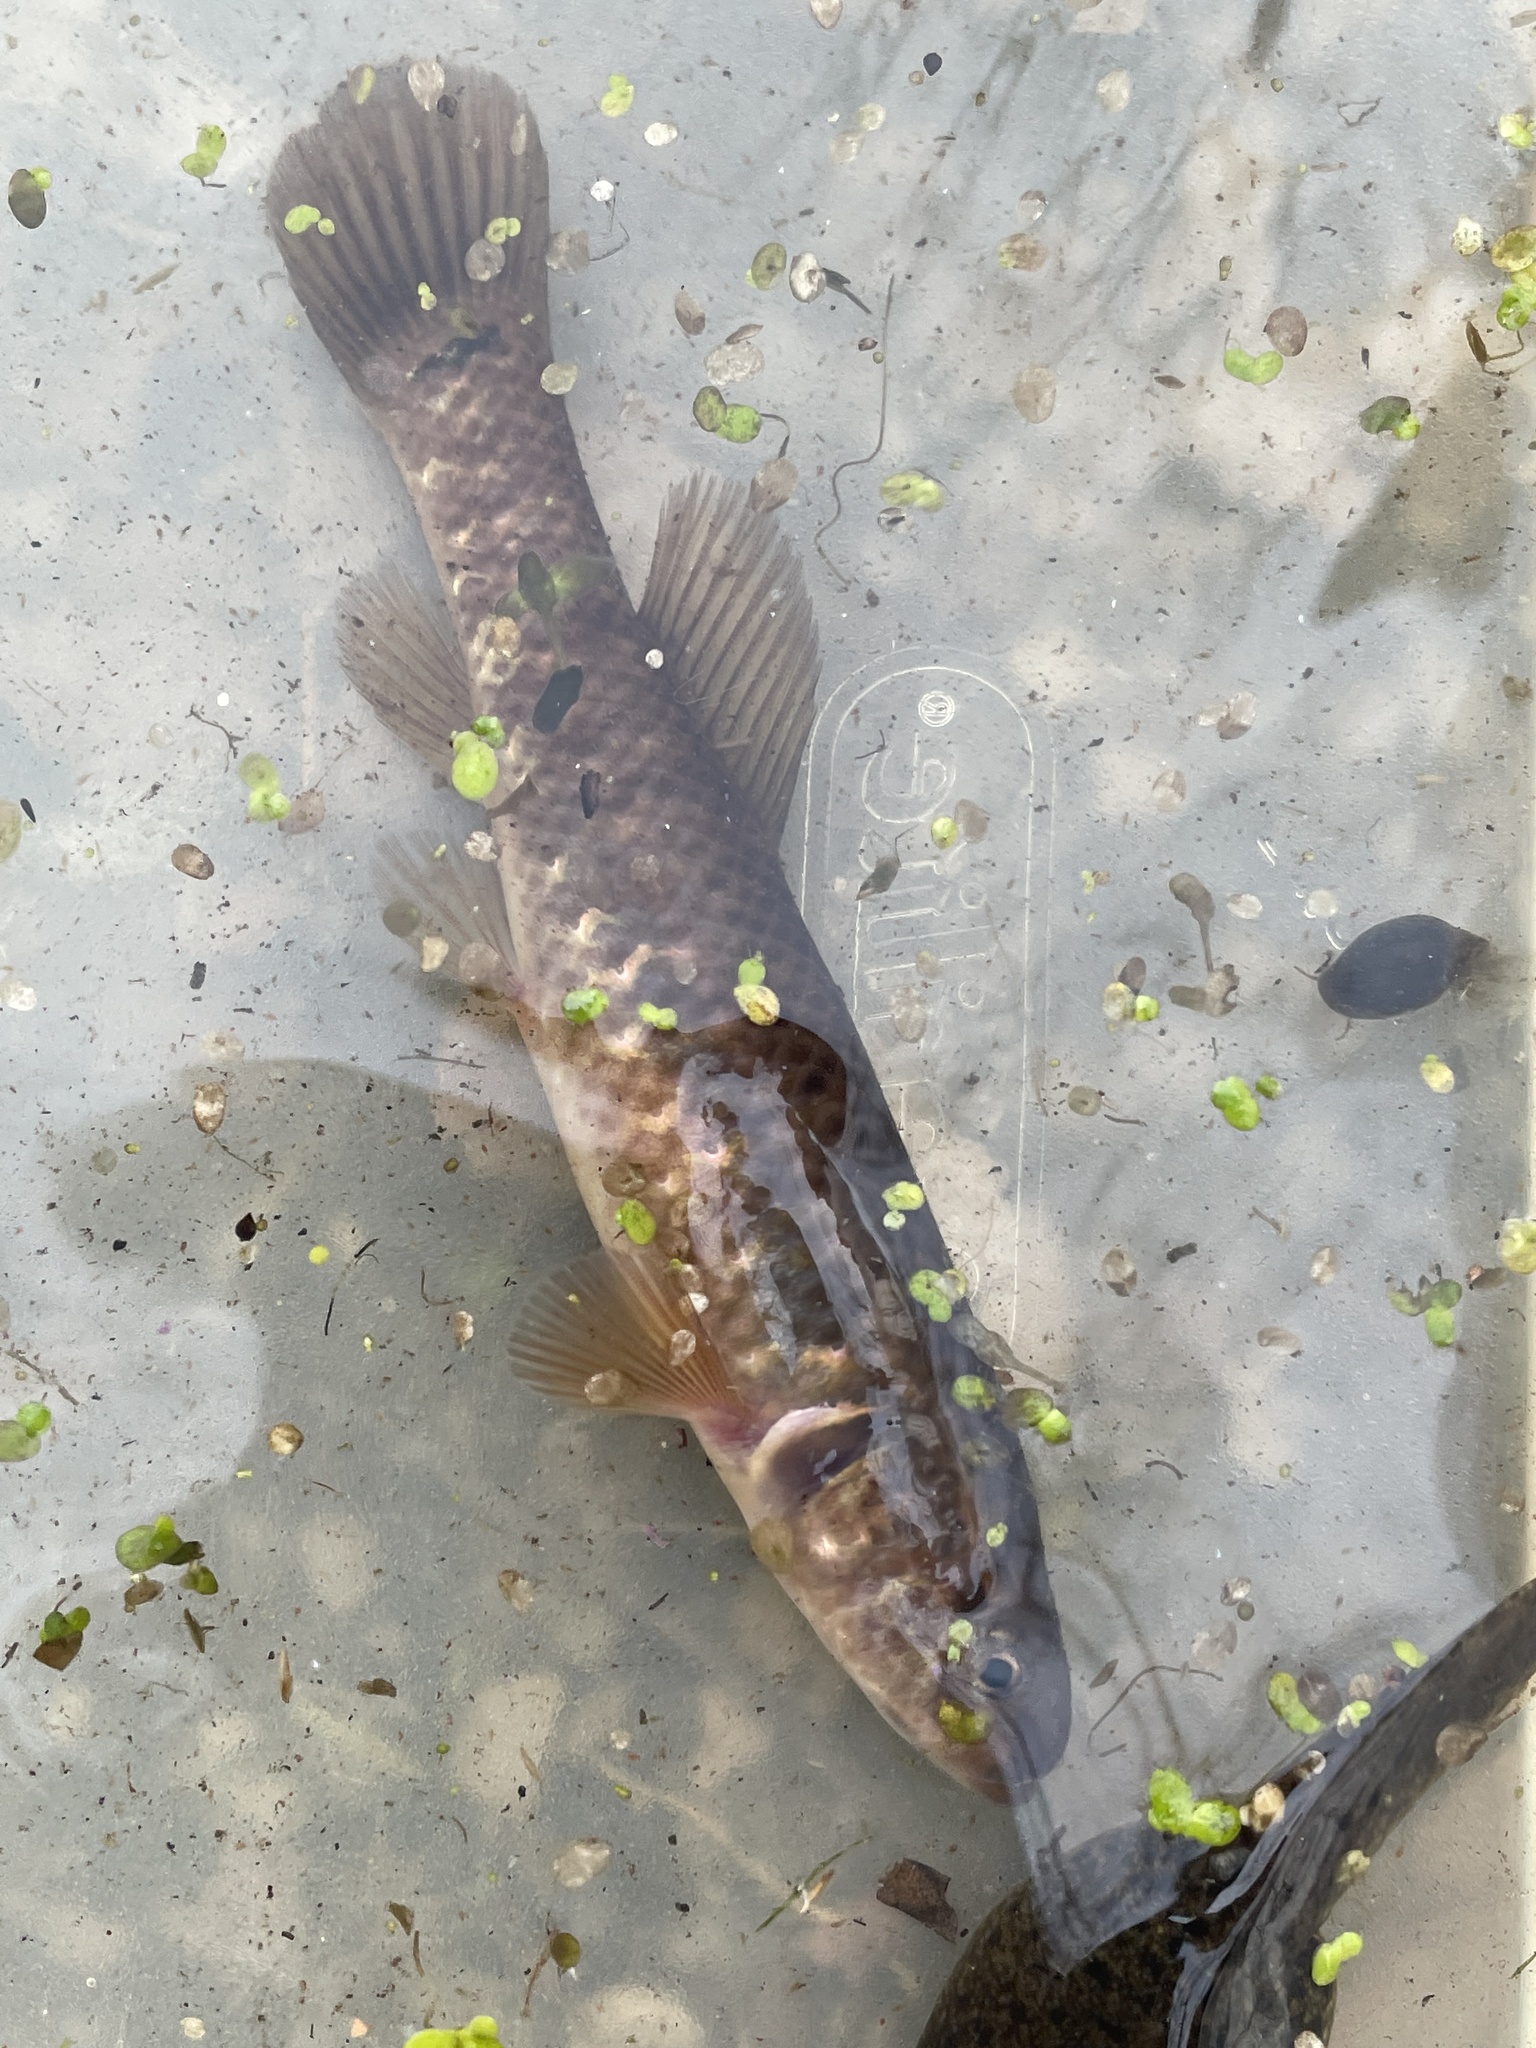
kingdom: Animalia
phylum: Chordata
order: Esociformes
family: Umbridae
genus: Umbra
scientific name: Umbra limi
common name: Central mudminnow
